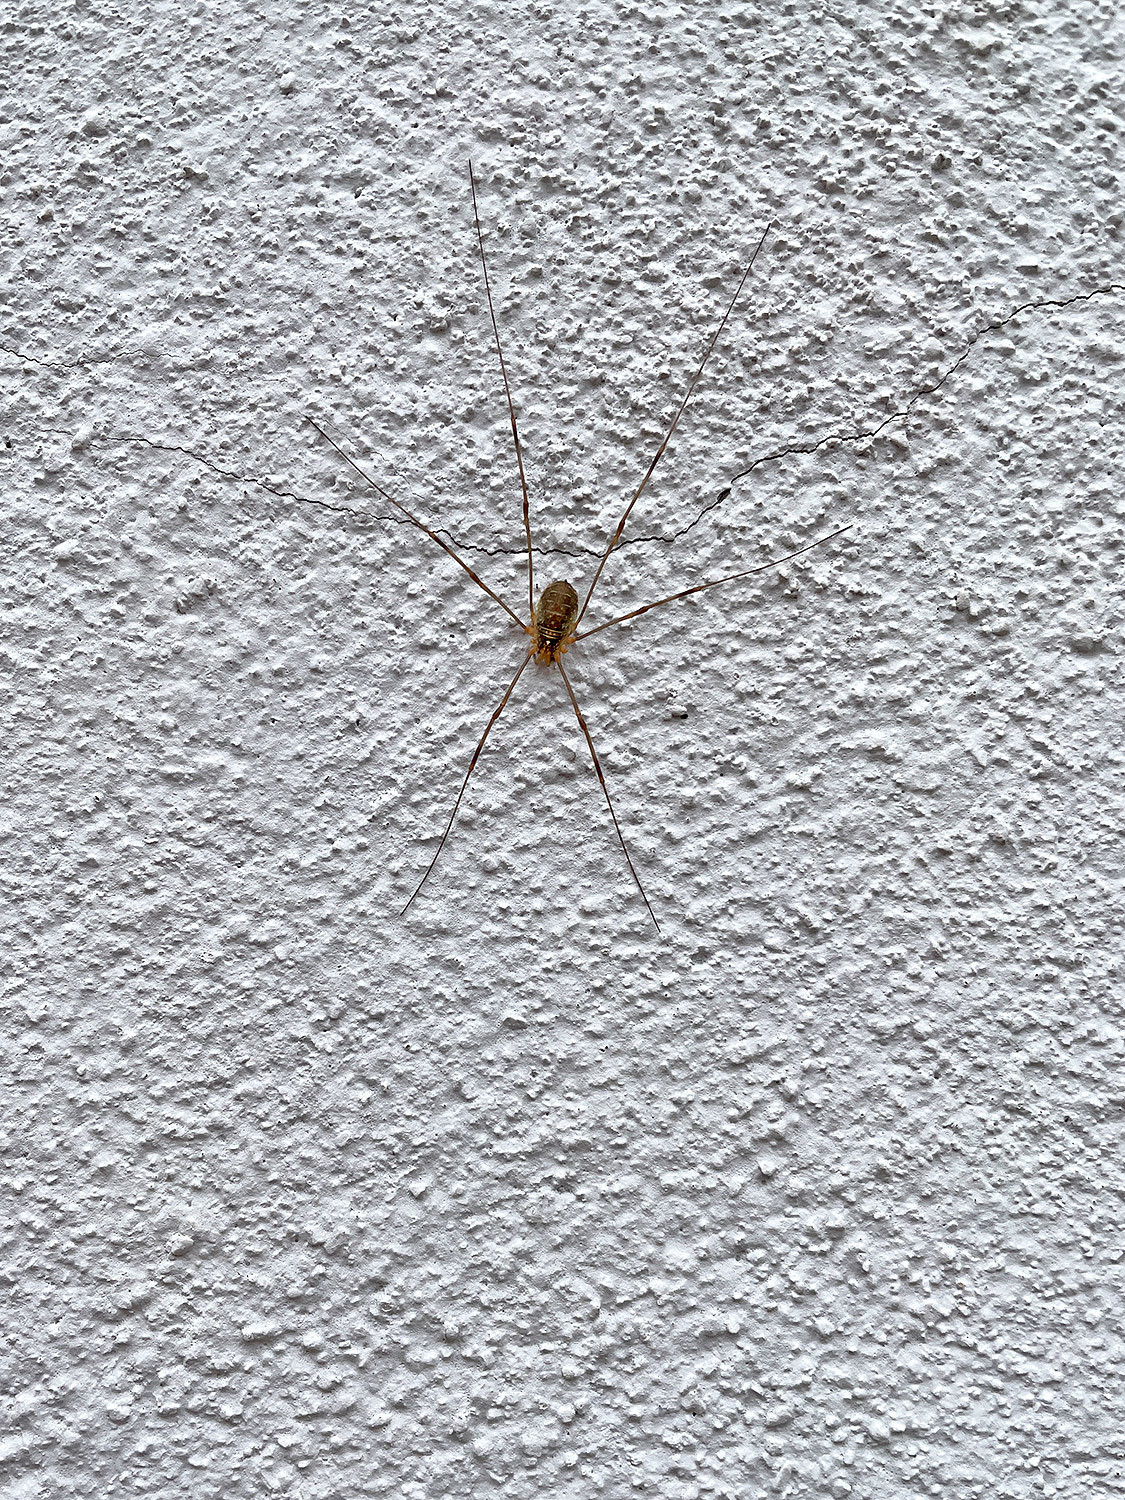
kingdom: Animalia
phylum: Arthropoda
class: Arachnida
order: Opiliones
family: Phalangiidae
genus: Opilio
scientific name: Opilio canestrinii
